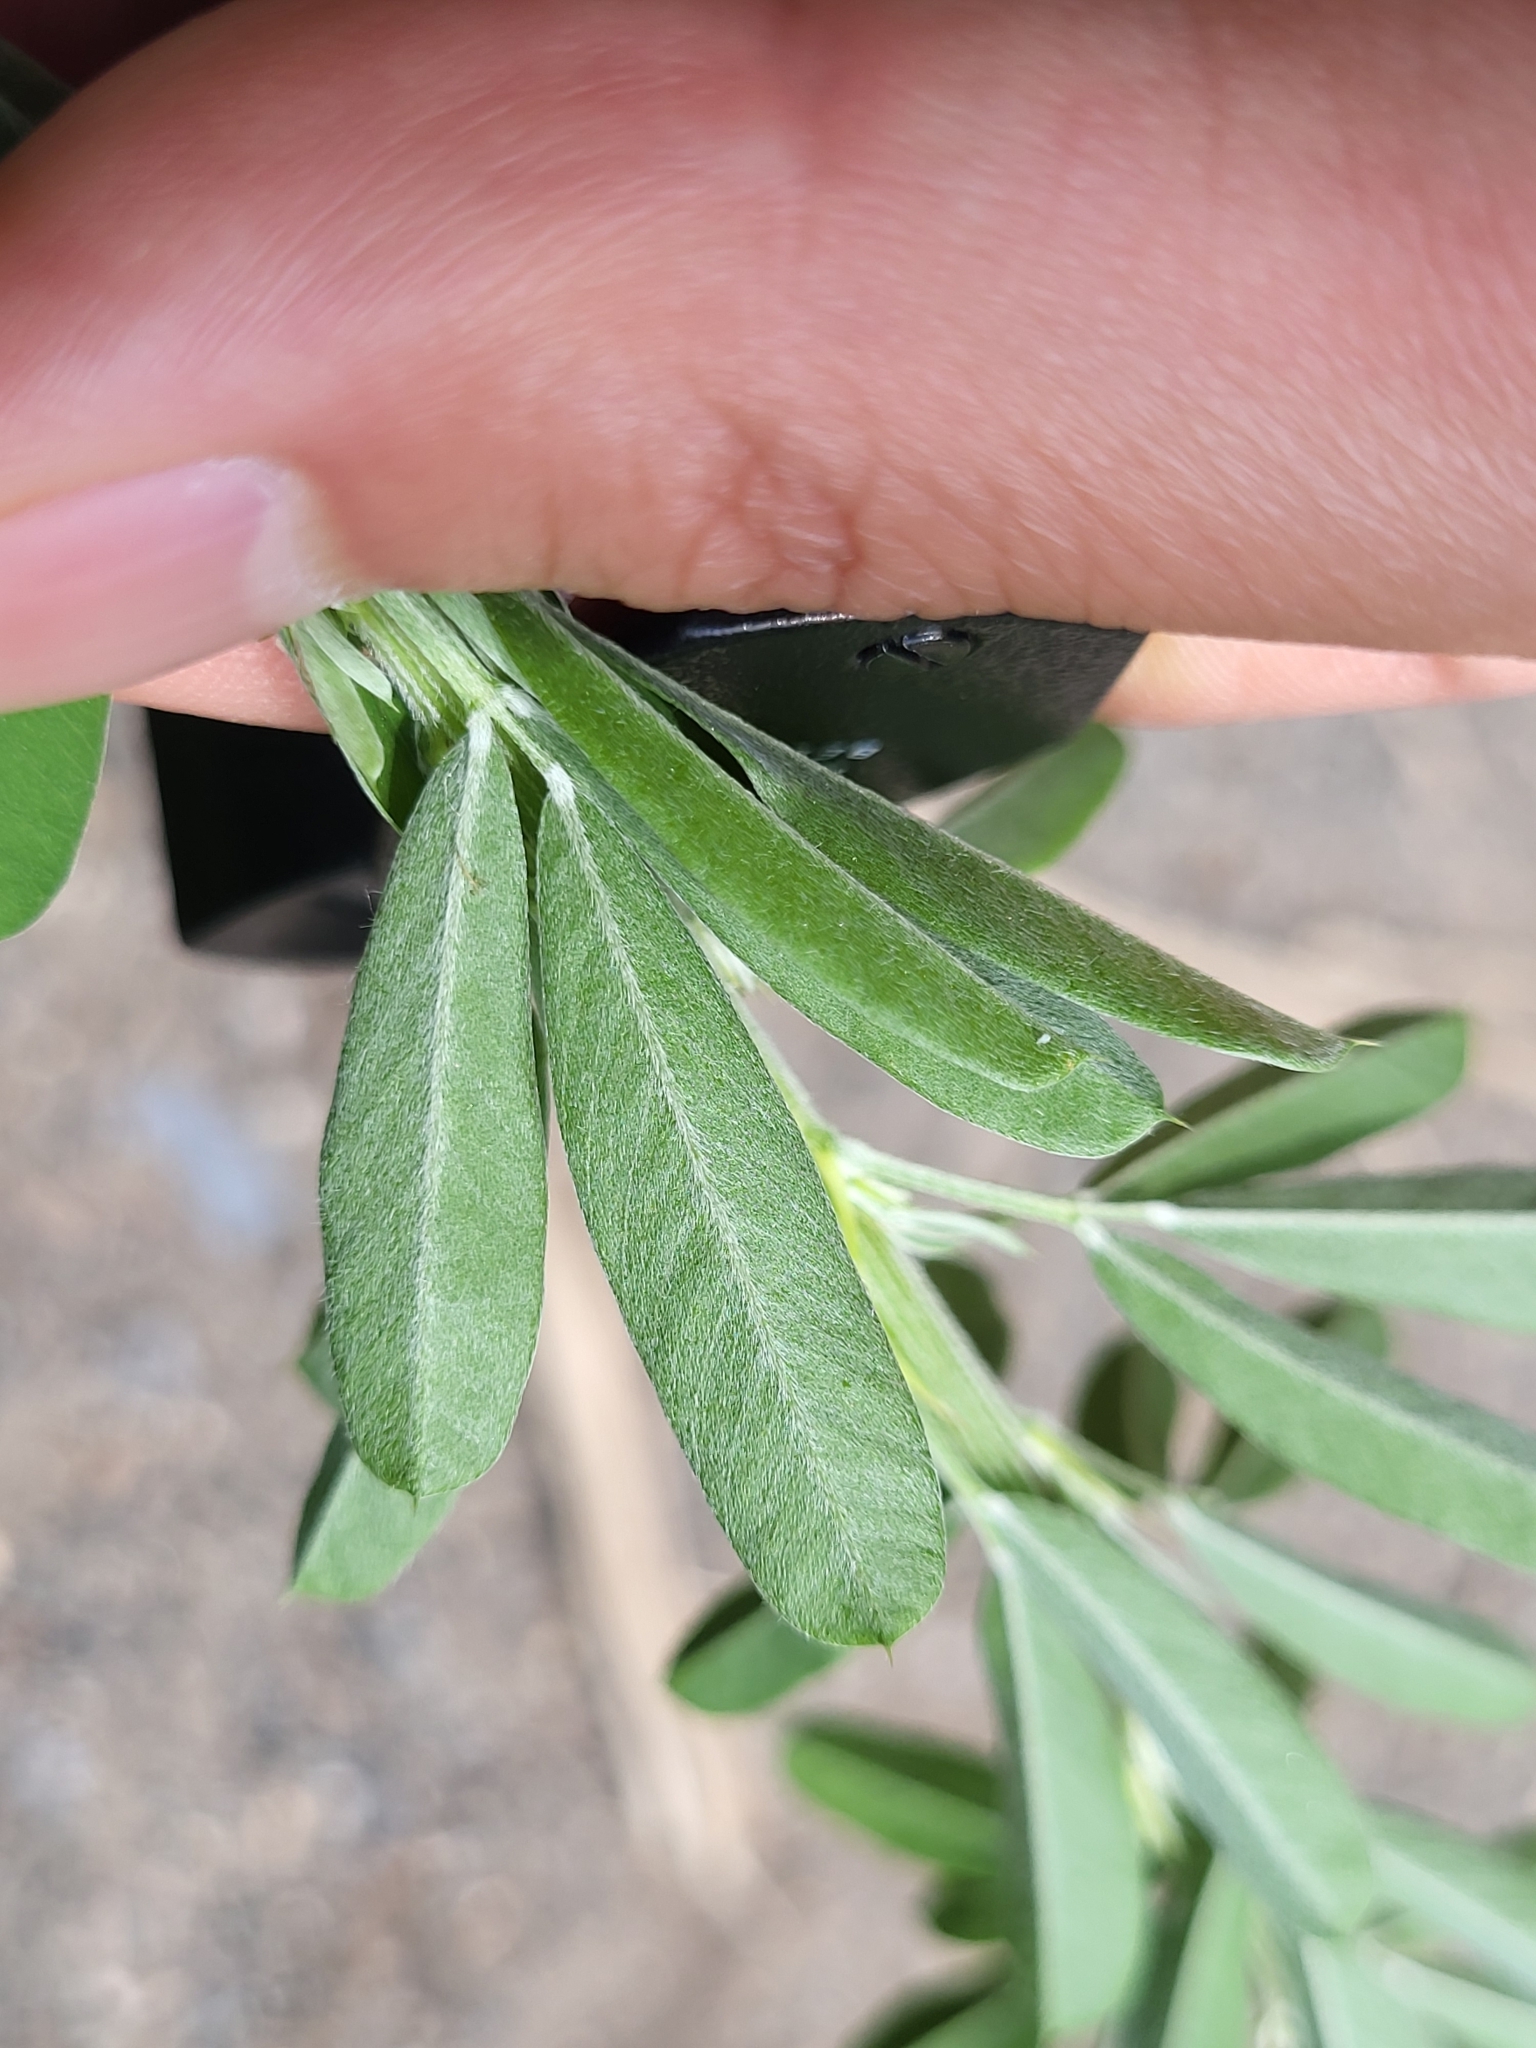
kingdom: Plantae
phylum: Tracheophyta
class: Magnoliopsida
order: Fabales
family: Fabaceae
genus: Lespedeza
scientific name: Lespedeza cuneata
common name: Chinese bush-clover
